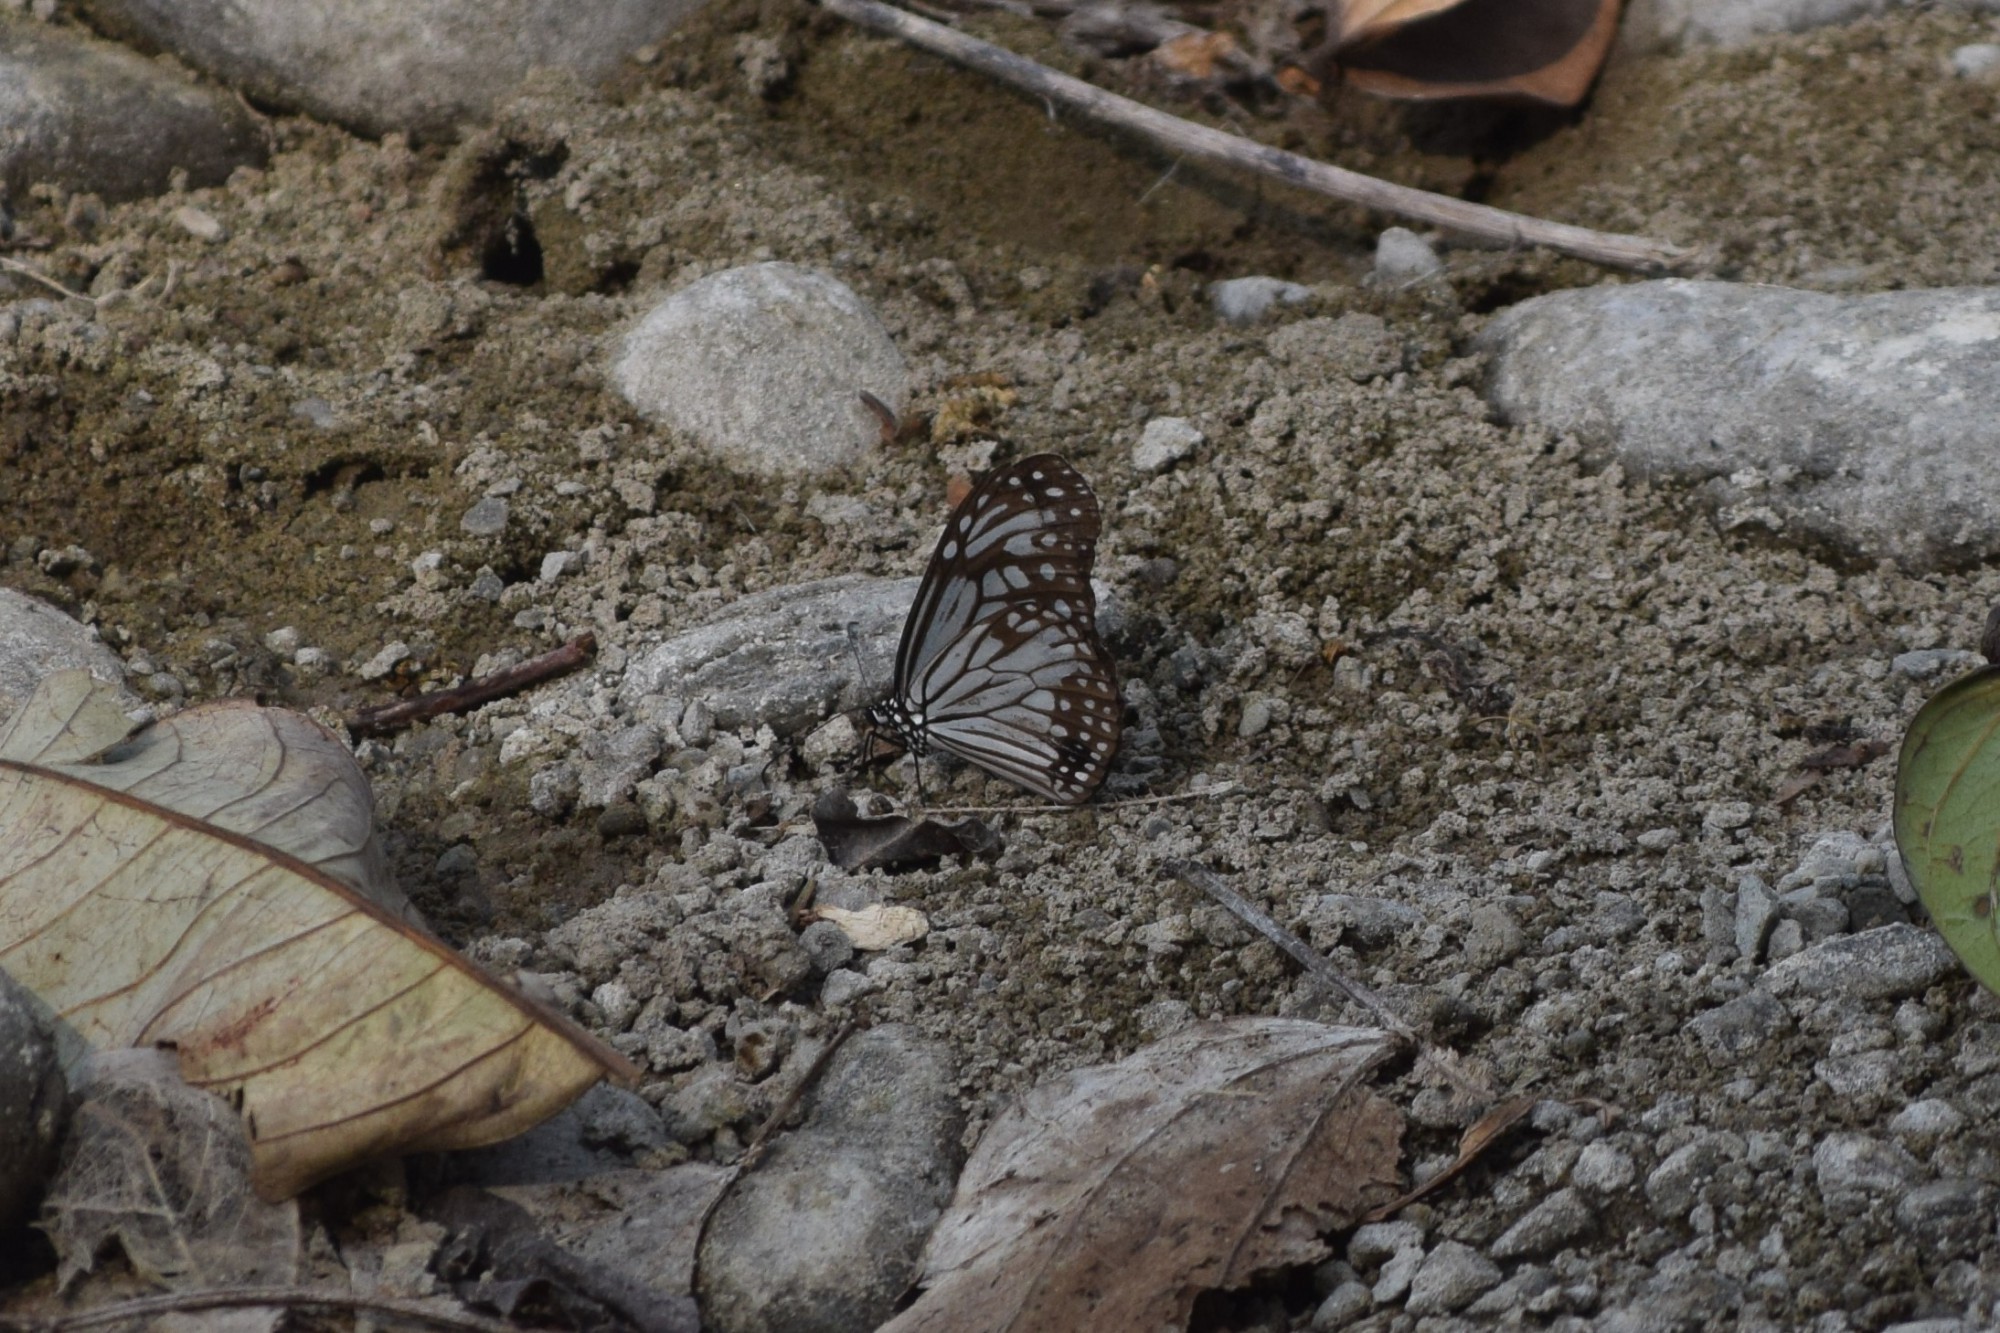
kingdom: Animalia
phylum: Arthropoda
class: Insecta
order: Lepidoptera
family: Nymphalidae
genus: Parantica
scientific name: Parantica aglea
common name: Glassy tiger
